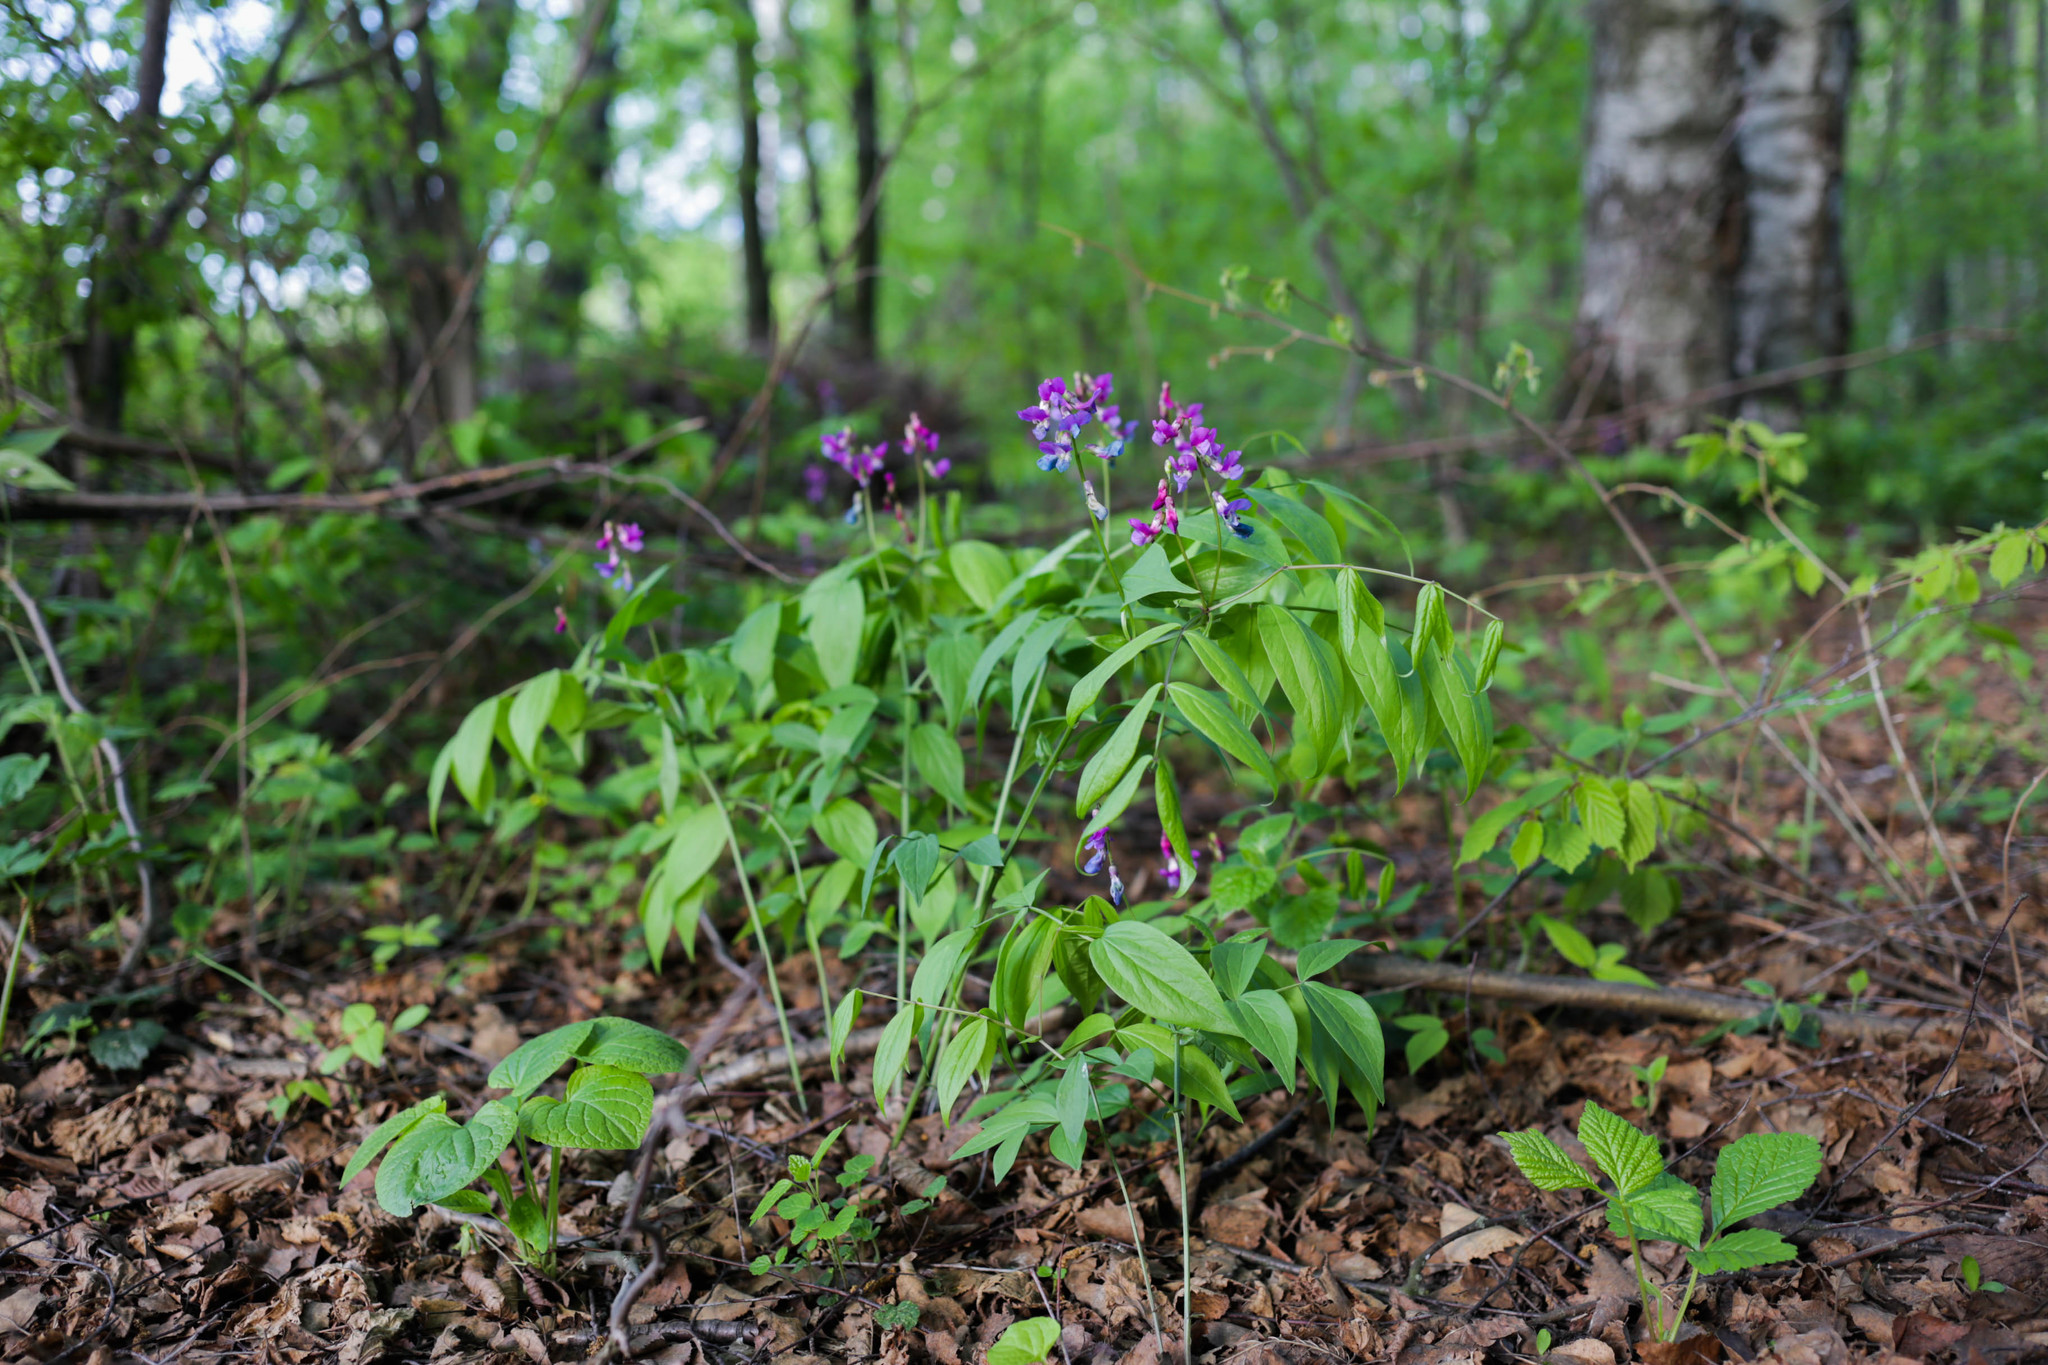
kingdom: Plantae
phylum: Tracheophyta
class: Magnoliopsida
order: Fabales
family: Fabaceae
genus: Lathyrus
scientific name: Lathyrus vernus
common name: Spring pea
